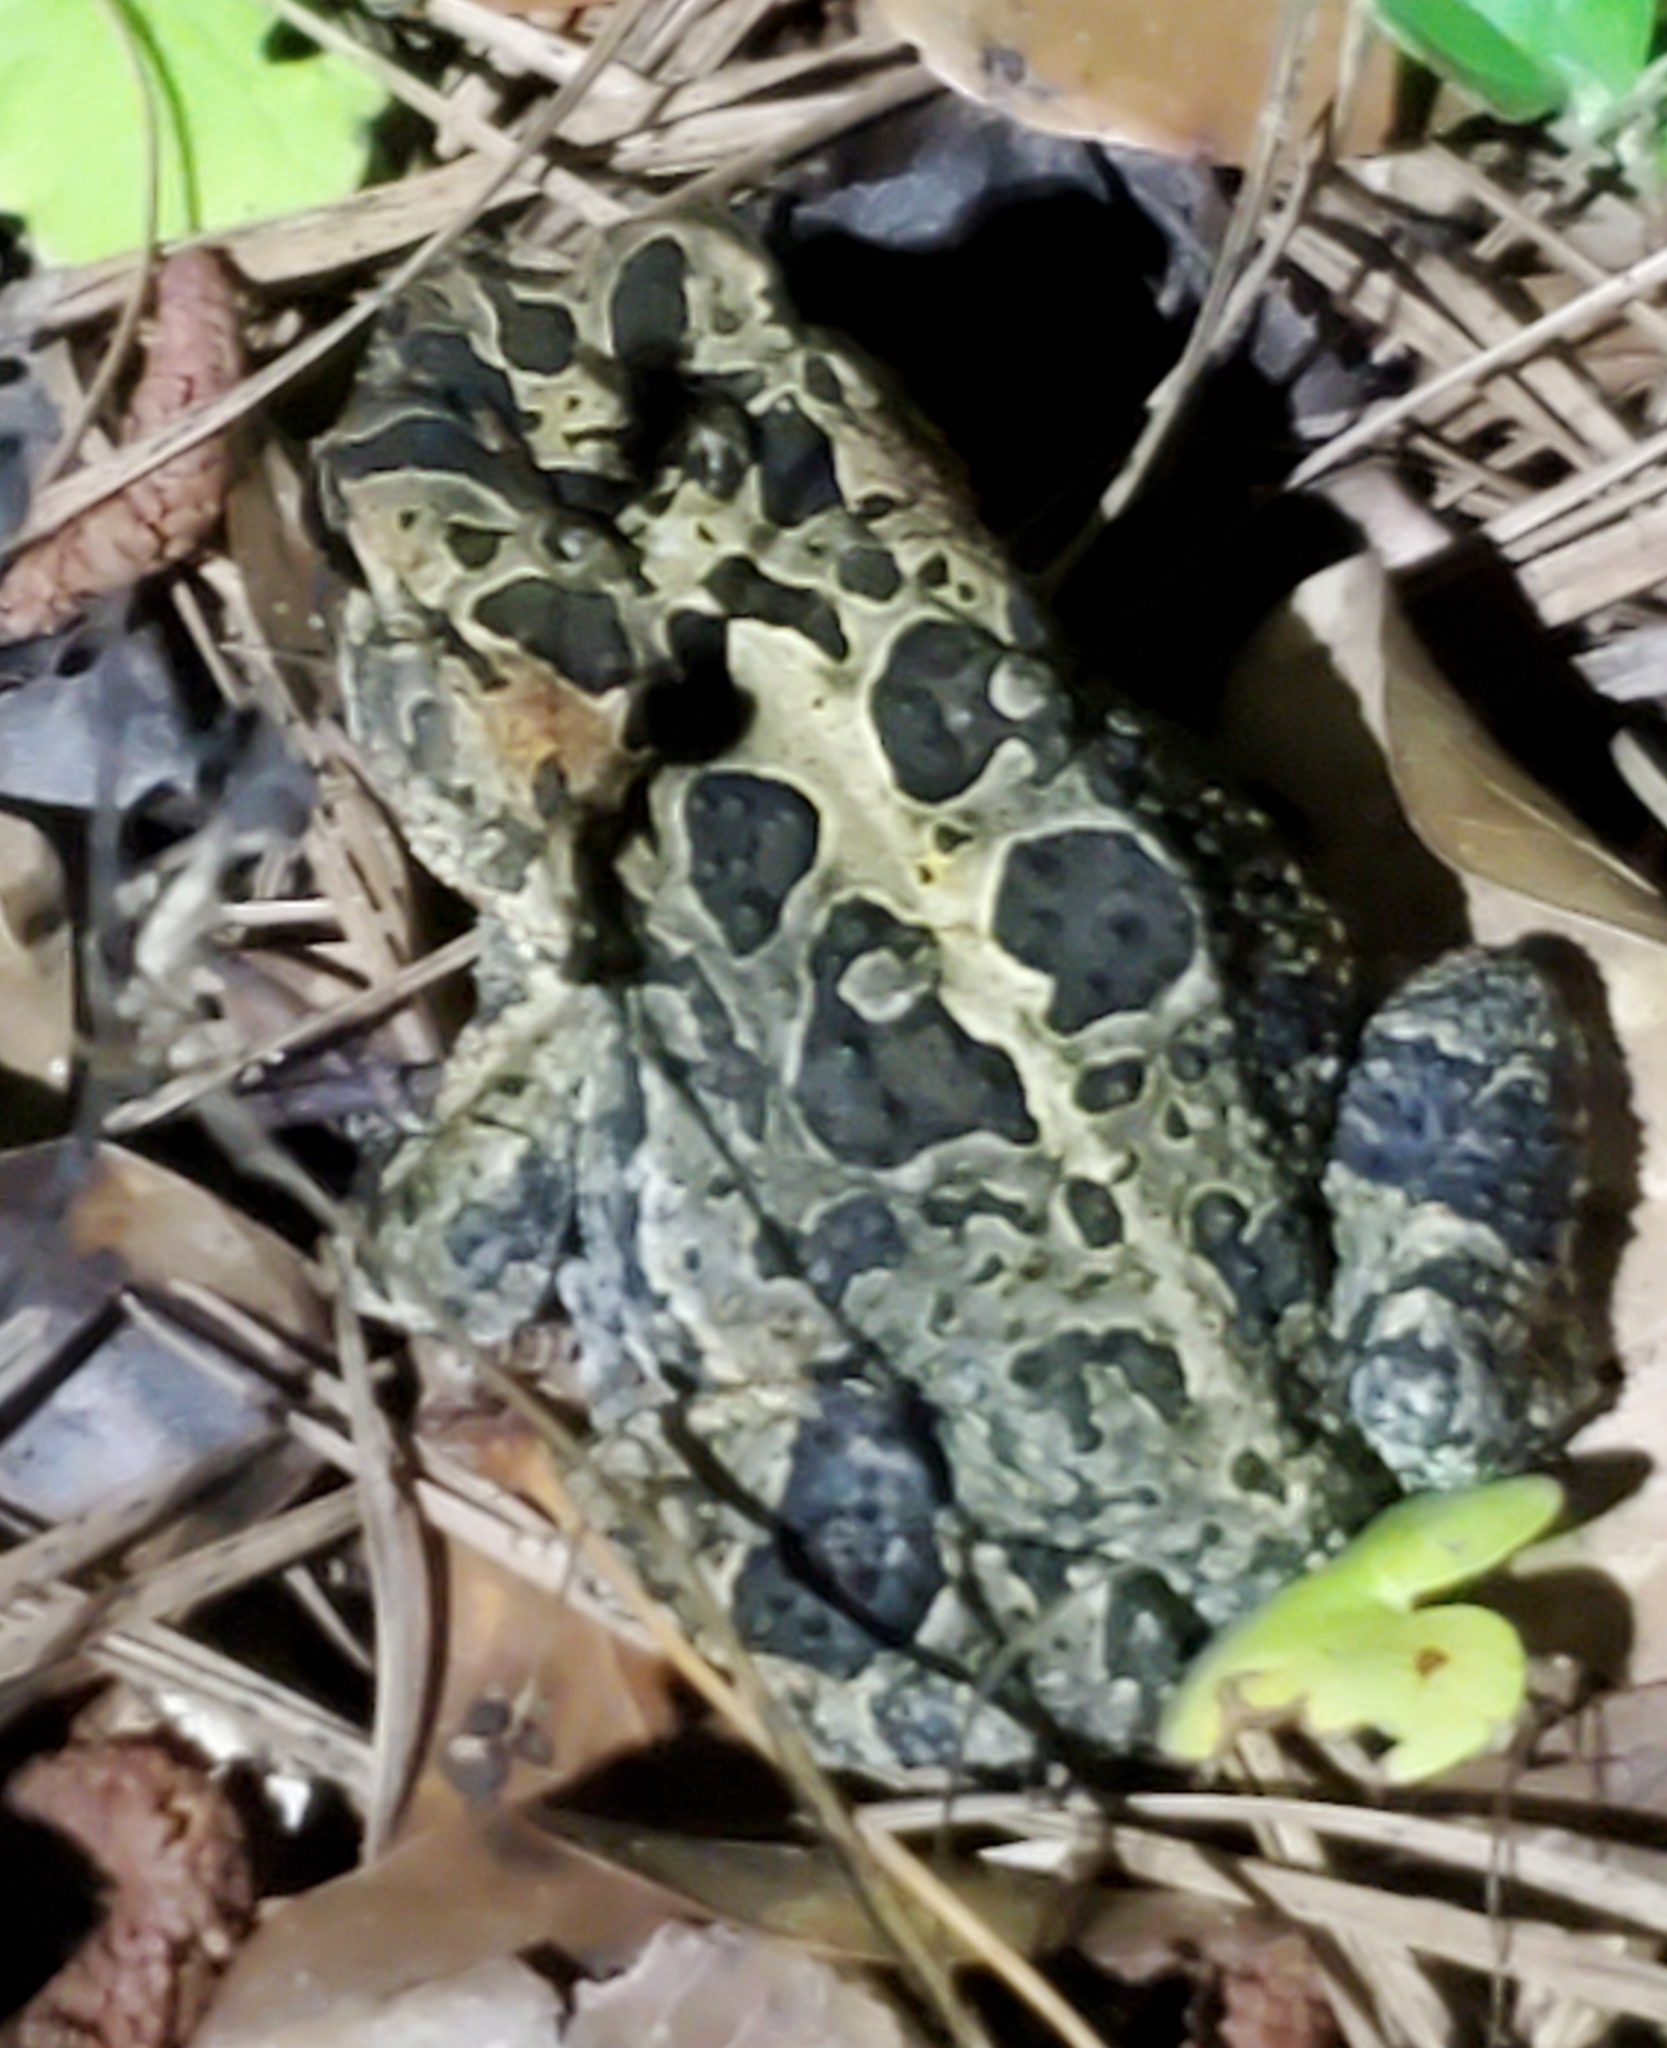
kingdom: Animalia
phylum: Chordata
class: Amphibia
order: Anura
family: Bufonidae
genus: Anaxyrus
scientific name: Anaxyrus terrestris
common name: Southern toad
